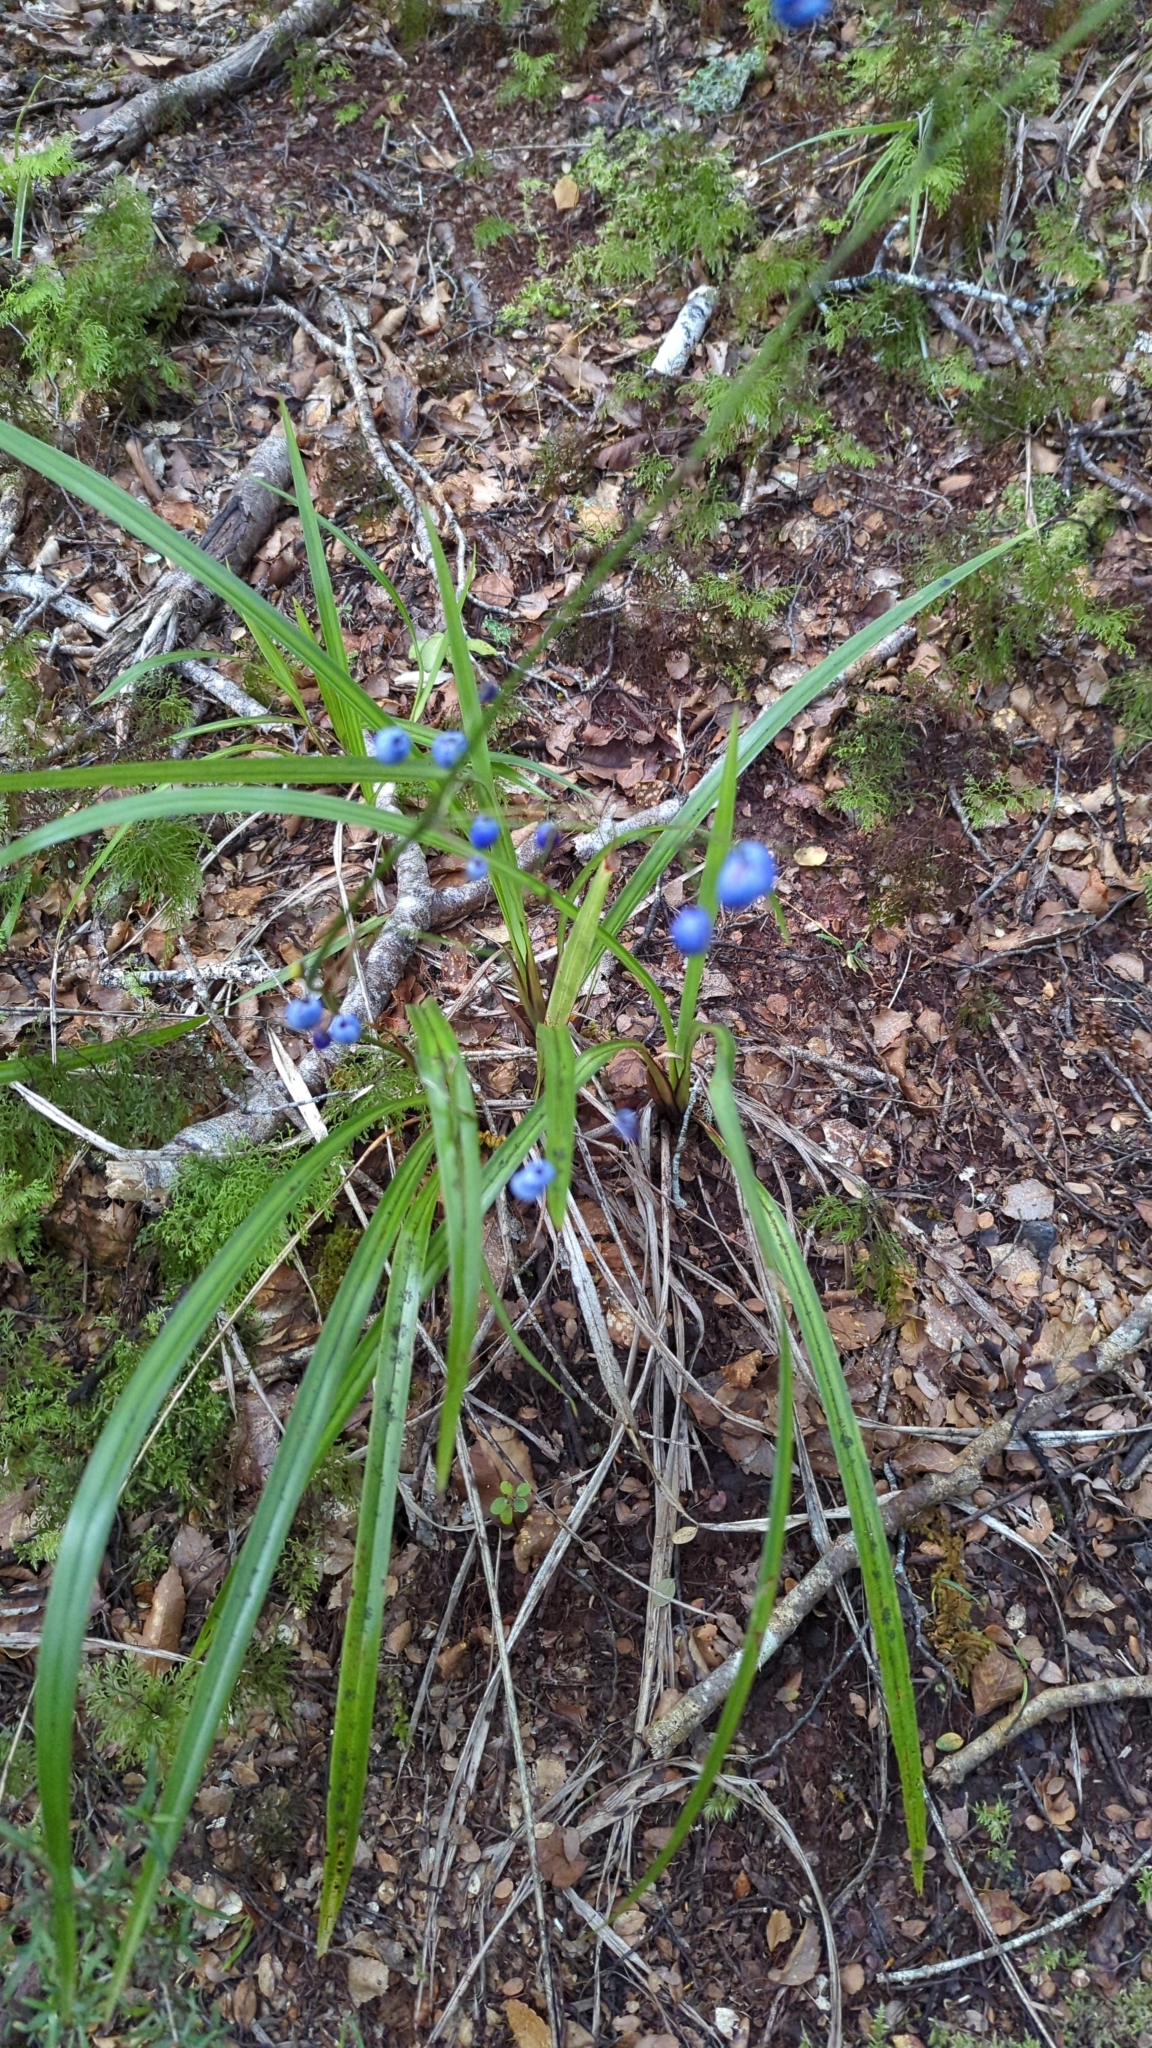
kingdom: Plantae
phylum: Tracheophyta
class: Liliopsida
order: Asparagales
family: Asphodelaceae
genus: Dianella
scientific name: Dianella nigra
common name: New zealand-blueberry
